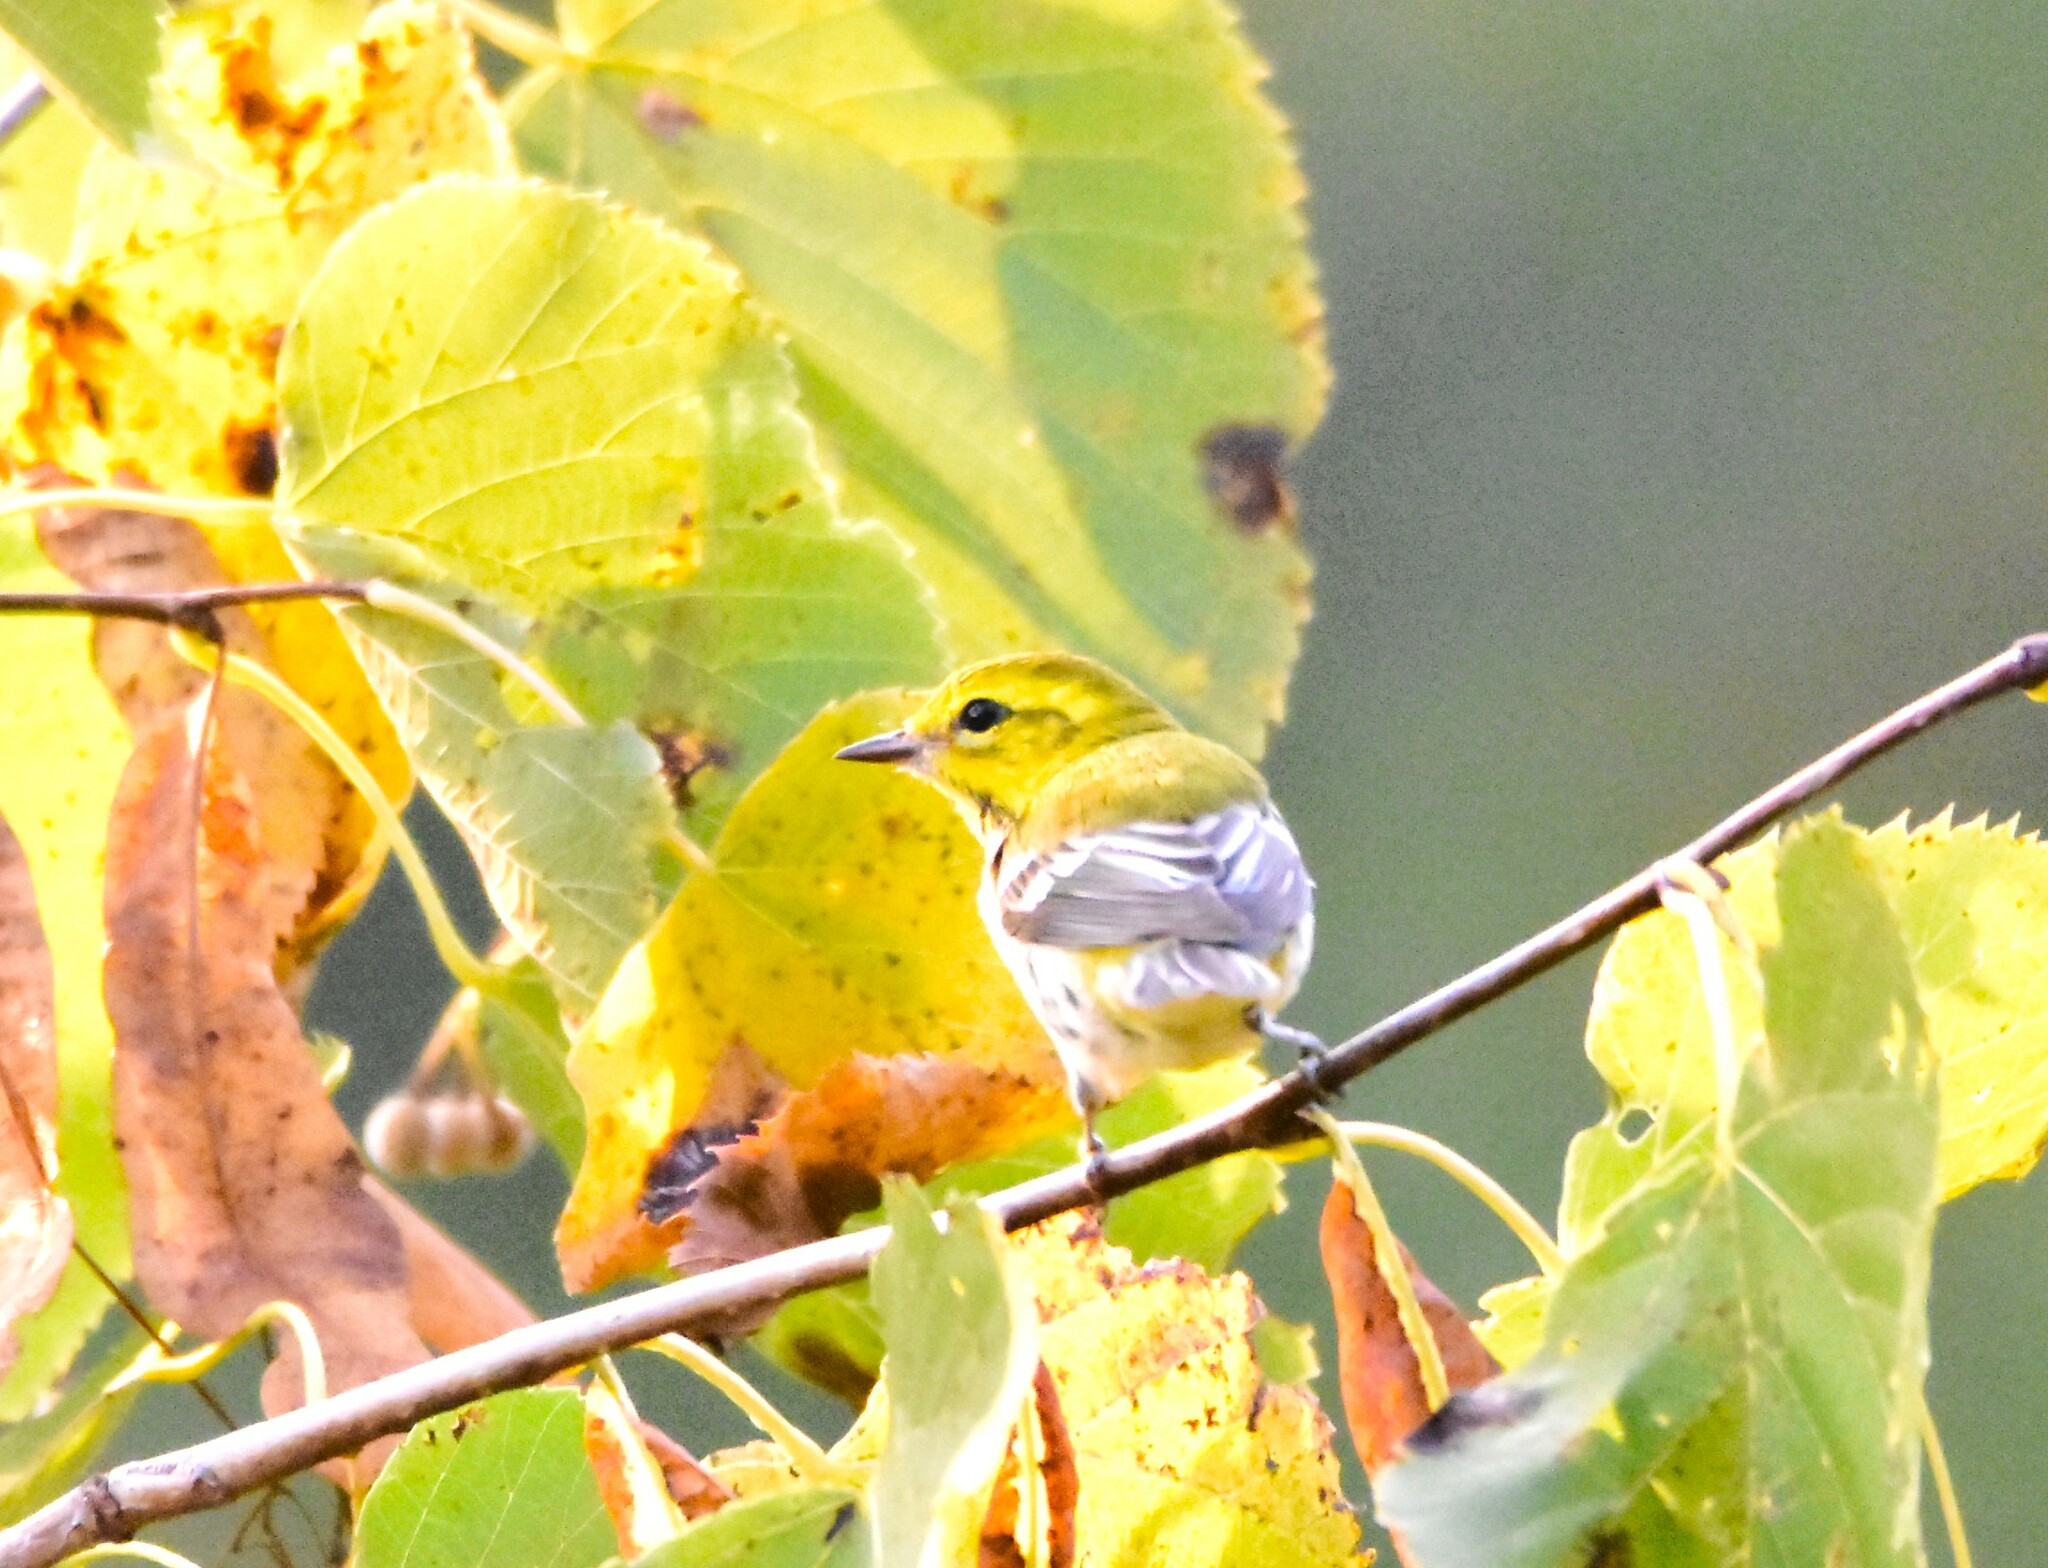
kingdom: Animalia
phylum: Chordata
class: Aves
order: Passeriformes
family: Parulidae
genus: Setophaga
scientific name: Setophaga virens
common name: Black-throated green warbler
